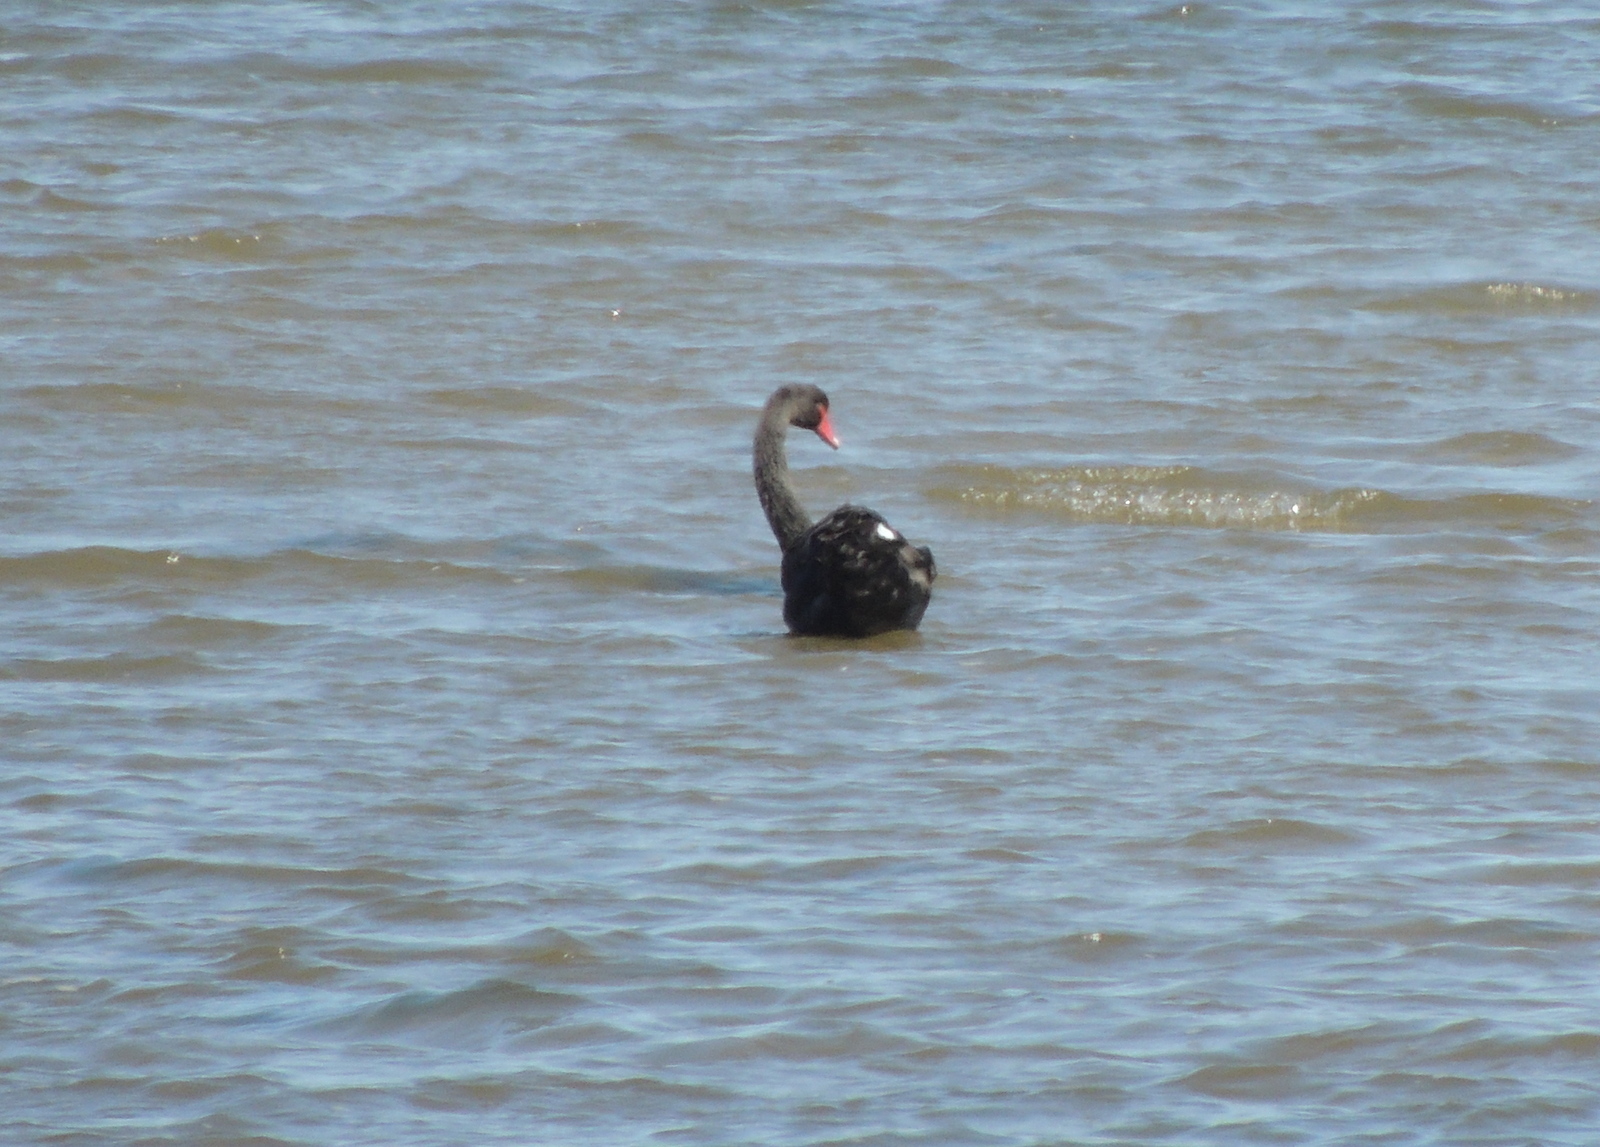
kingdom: Animalia
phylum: Chordata
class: Aves
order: Anseriformes
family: Anatidae
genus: Cygnus
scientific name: Cygnus atratus
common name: Black swan
